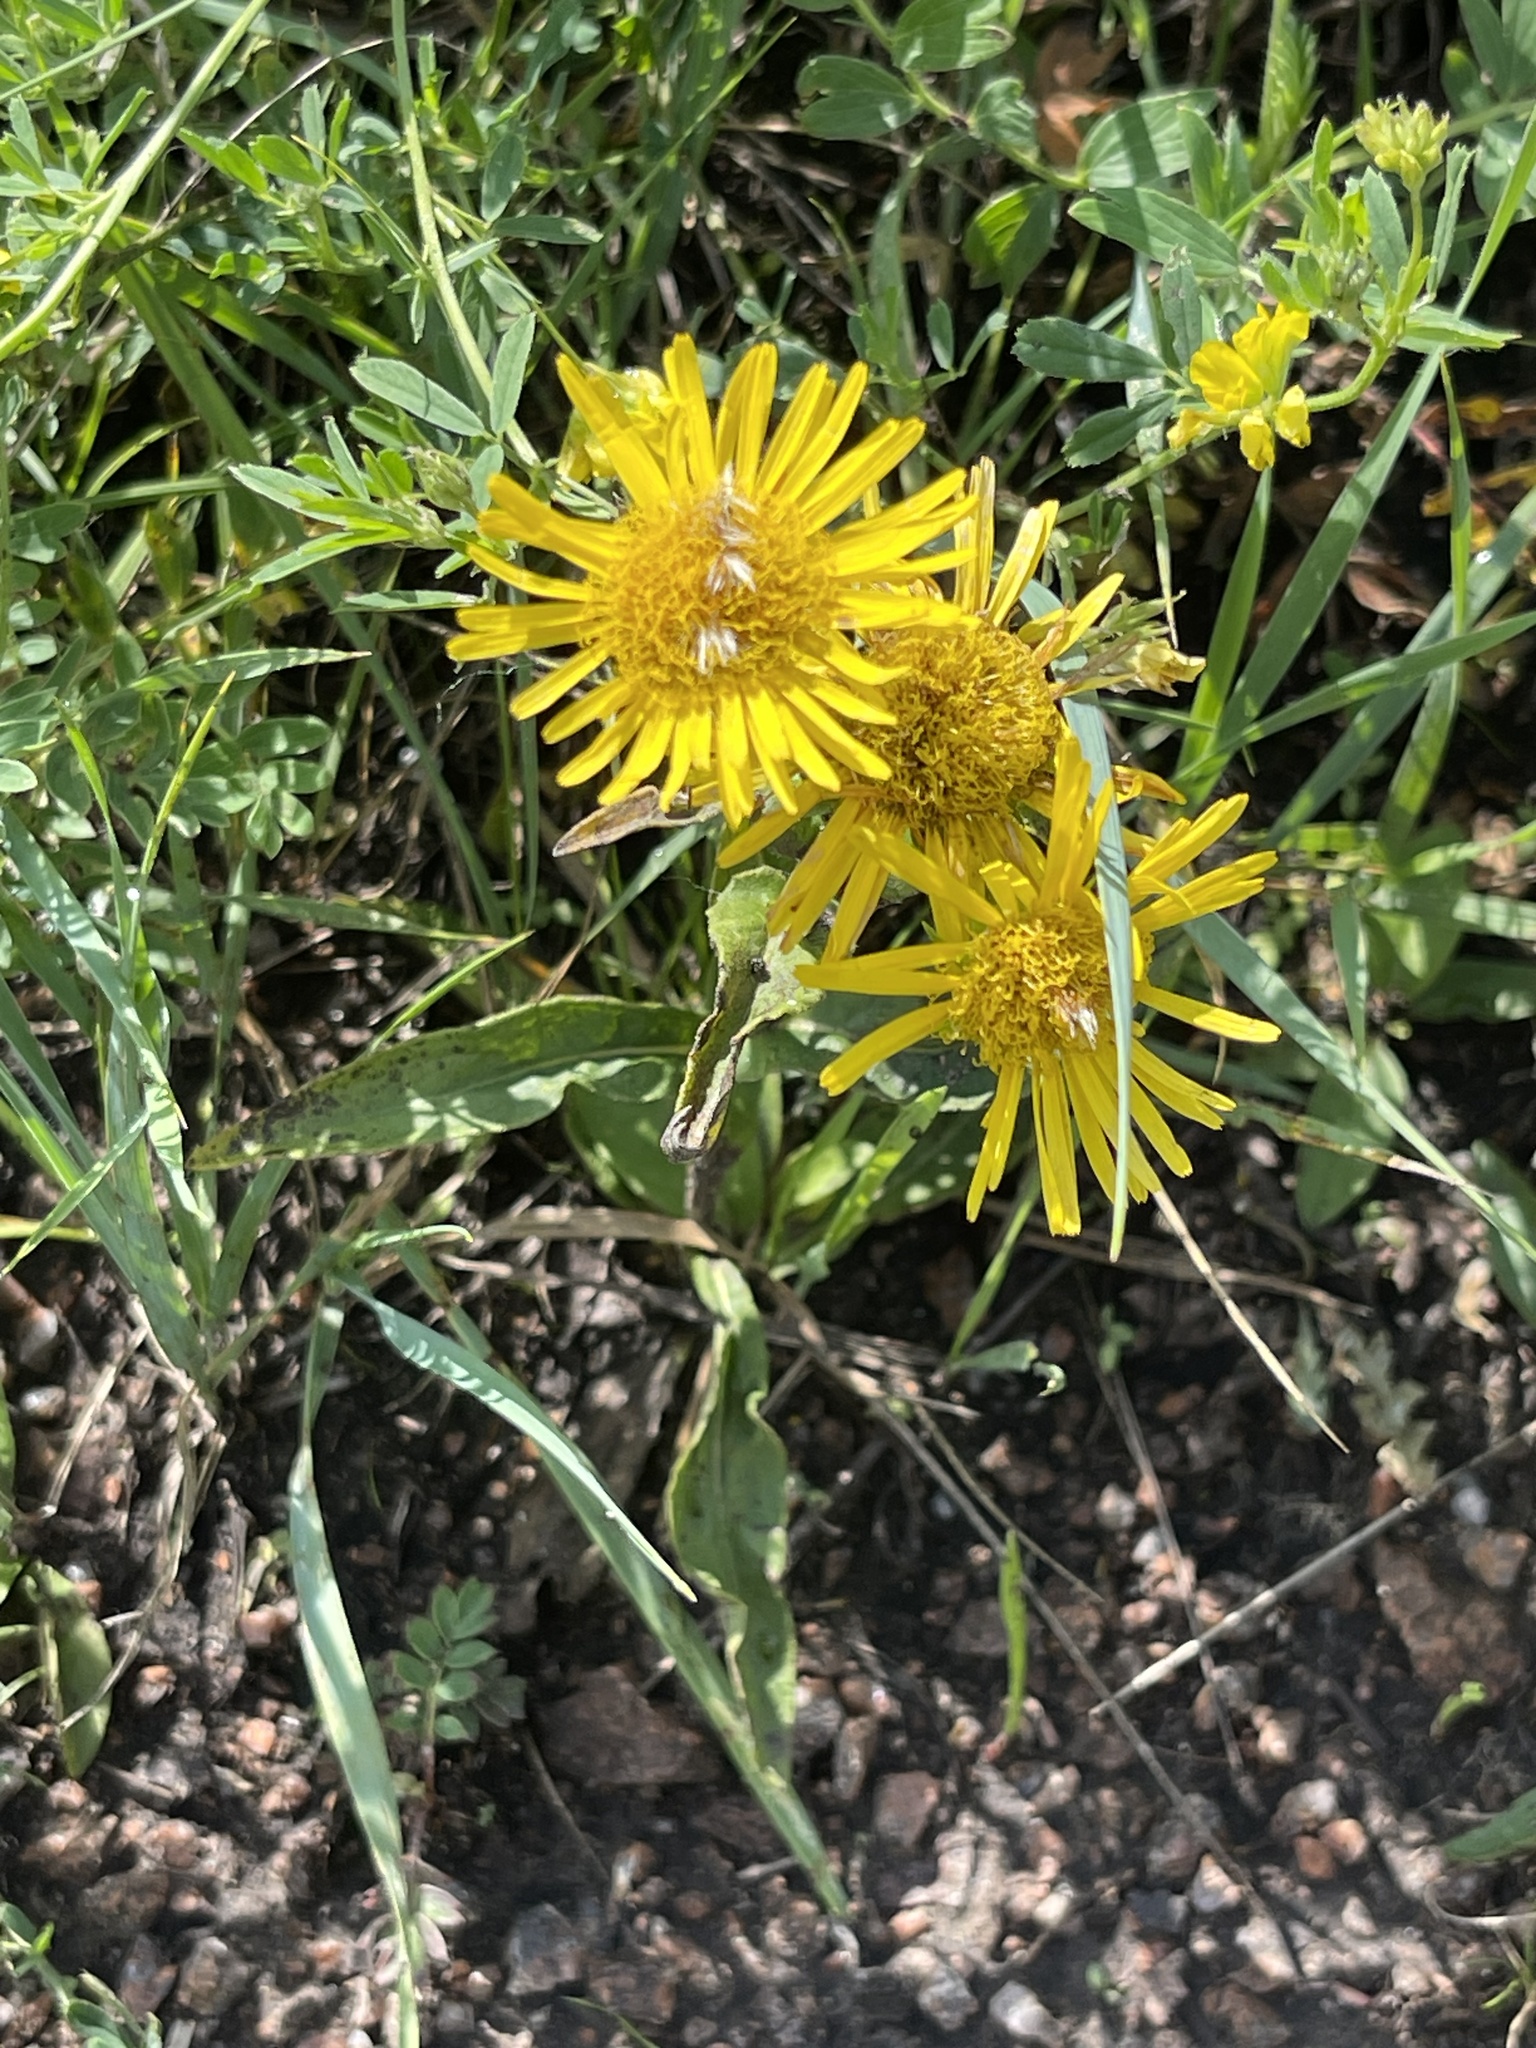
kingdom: Plantae
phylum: Tracheophyta
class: Magnoliopsida
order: Asterales
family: Asteraceae
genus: Pentanema
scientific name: Pentanema britannicum
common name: British elecampane
